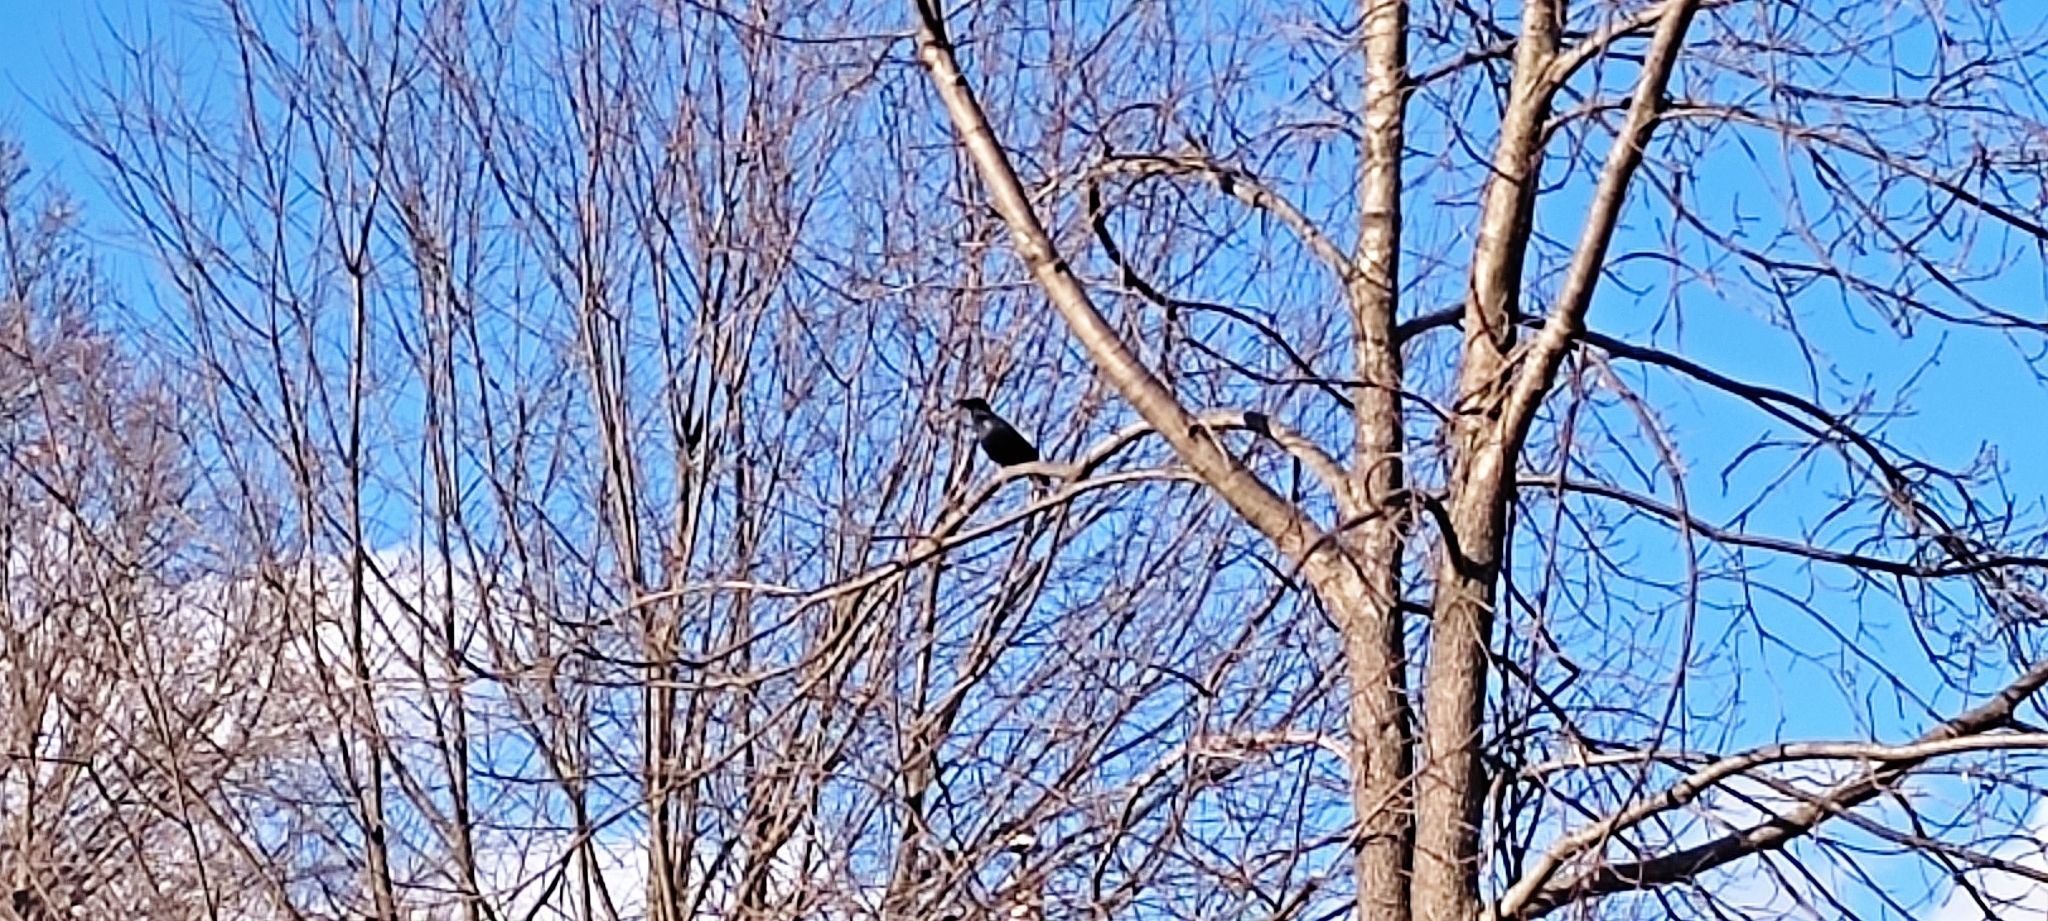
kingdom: Animalia
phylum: Chordata
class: Aves
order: Passeriformes
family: Corvidae
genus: Corvus
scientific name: Corvus
